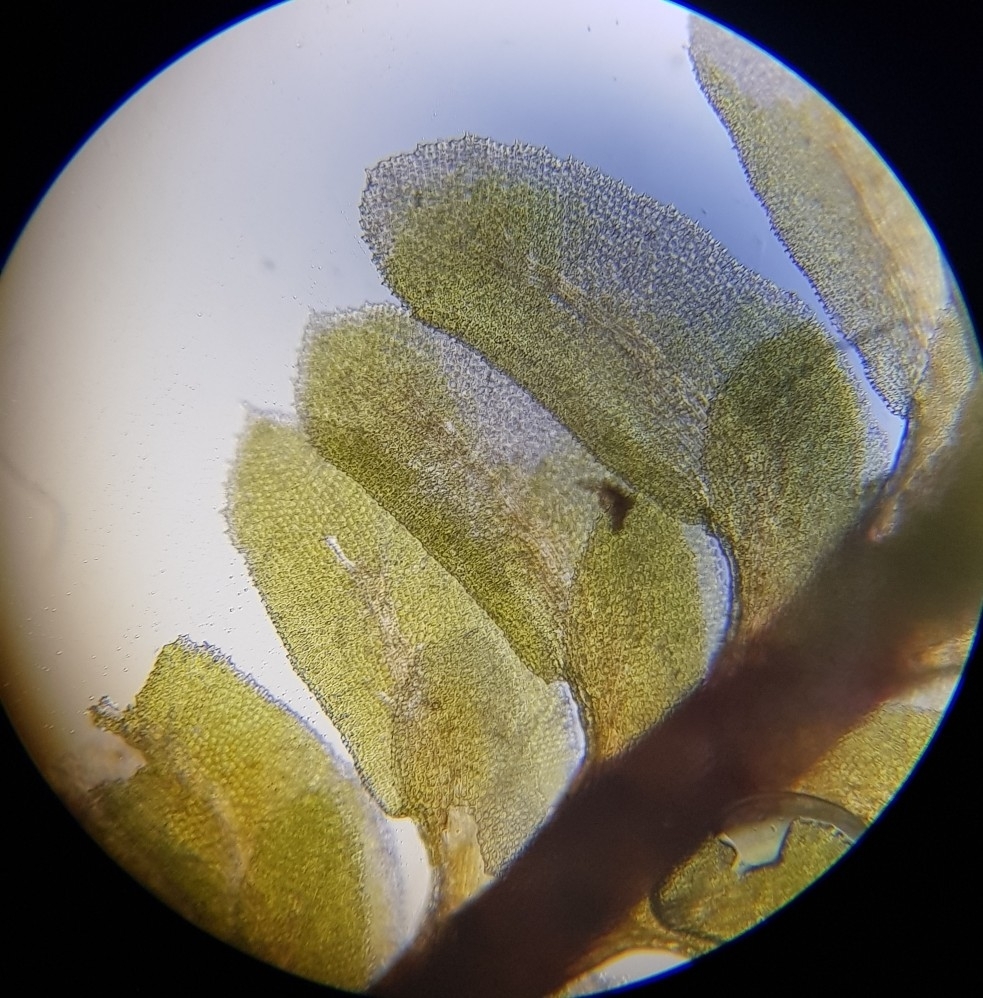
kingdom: Plantae
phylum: Marchantiophyta
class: Jungermanniopsida
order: Jungermanniales
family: Scapaniaceae
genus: Diplophyllum
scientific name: Diplophyllum albicans
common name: White earwort
